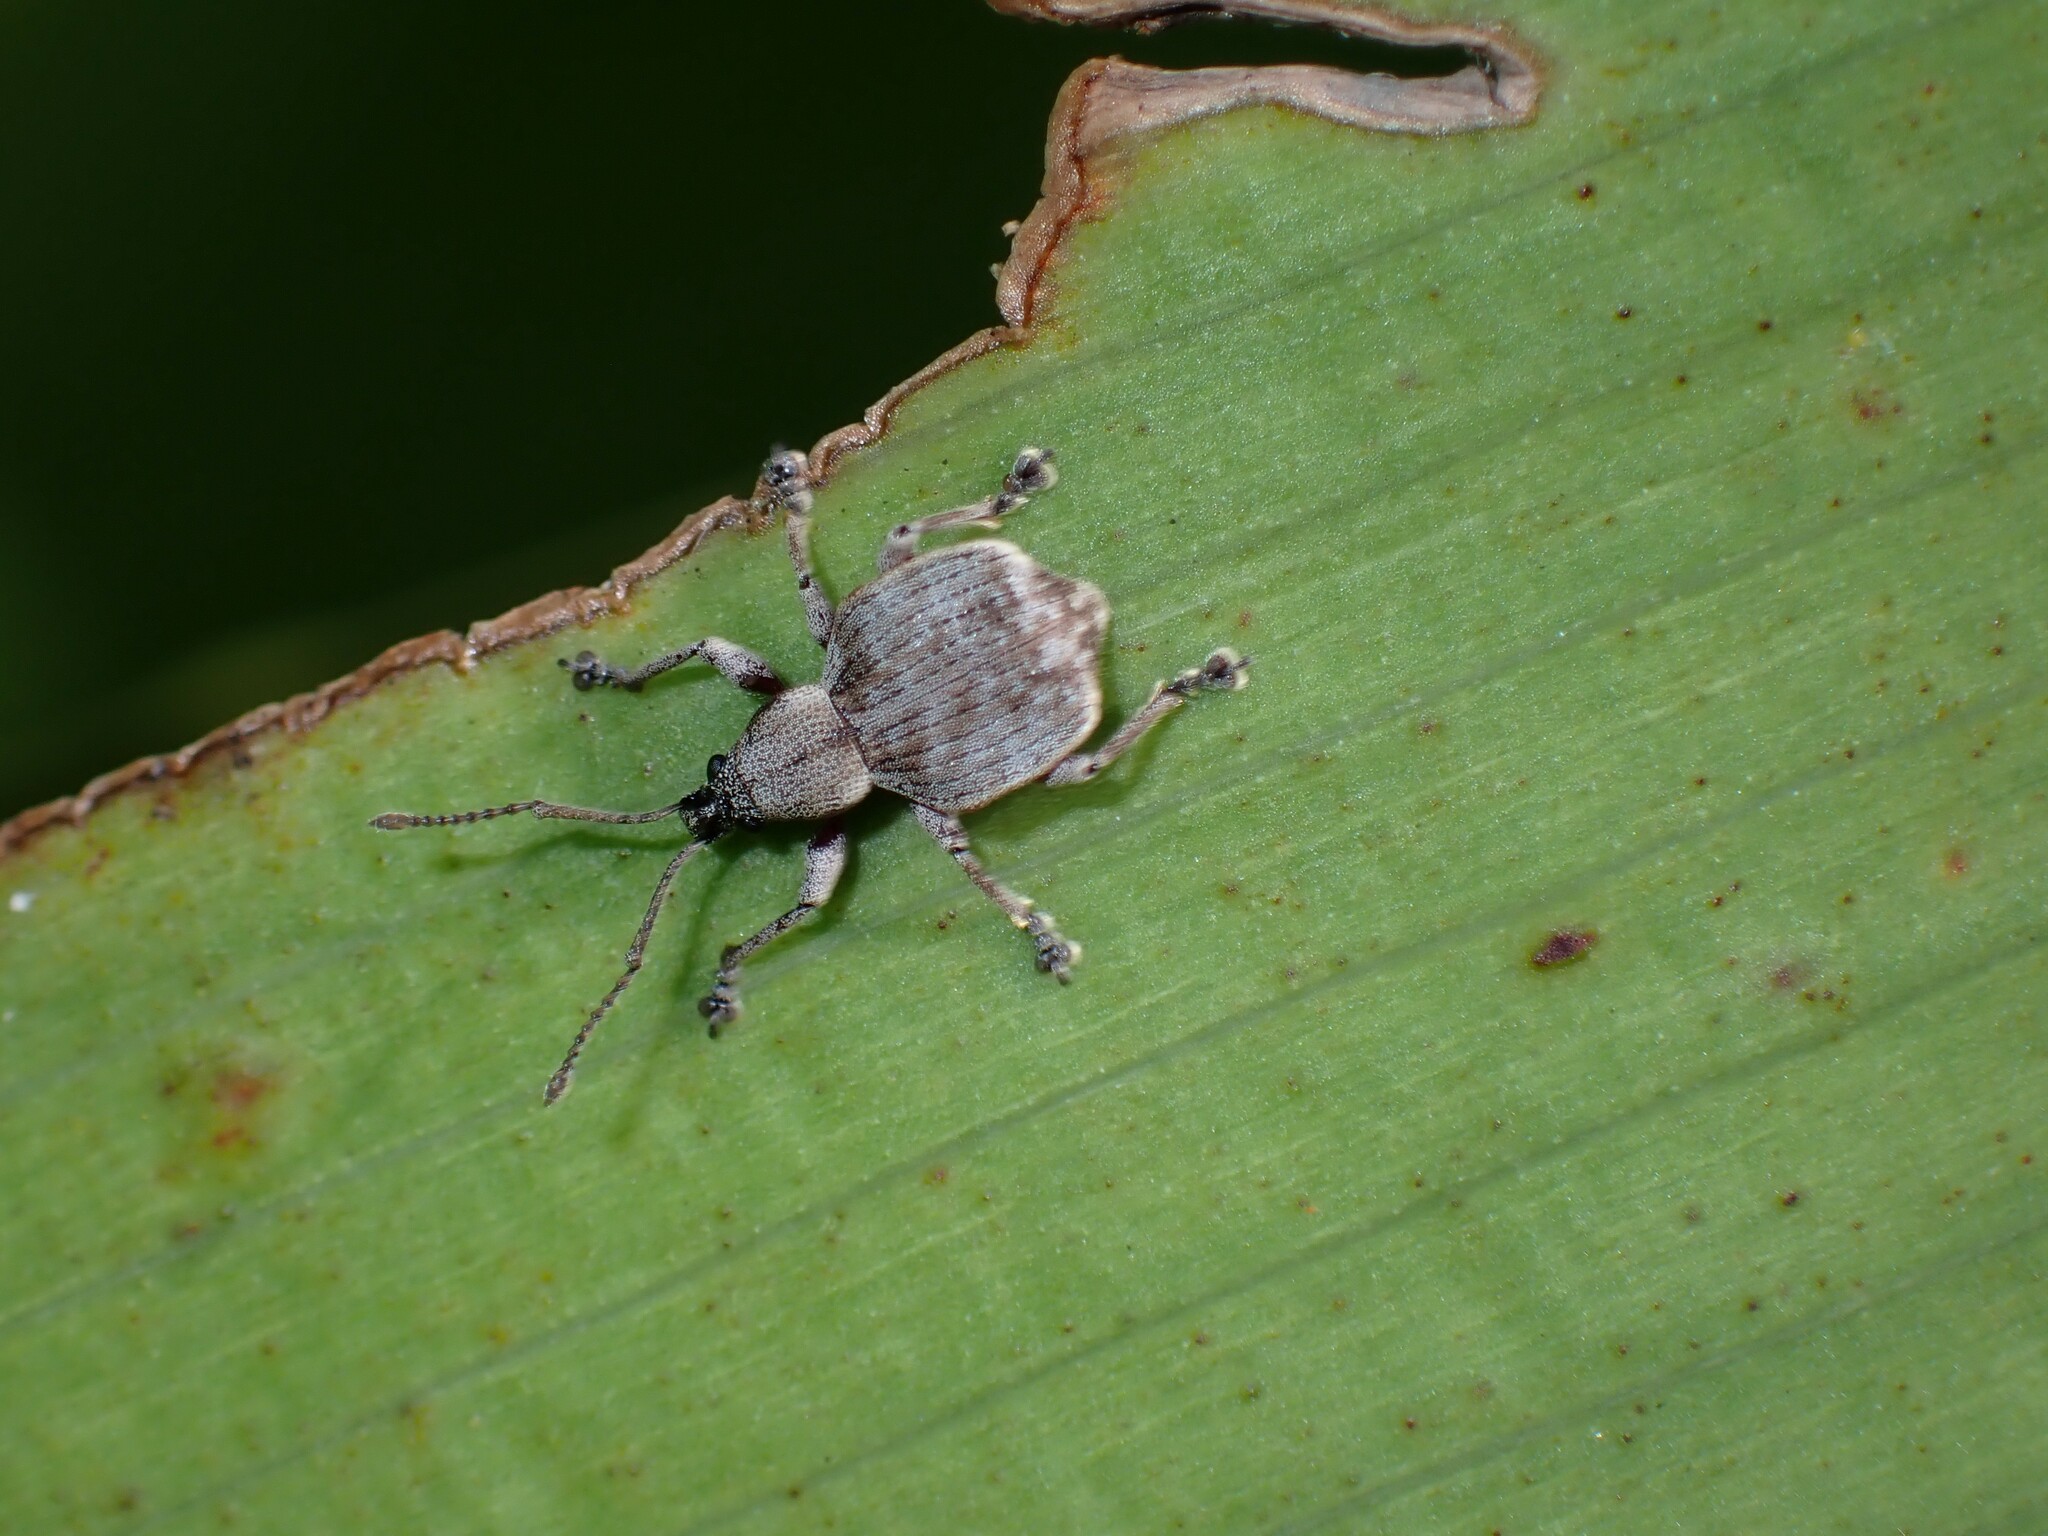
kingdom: Animalia
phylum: Arthropoda
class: Insecta
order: Coleoptera
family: Curculionidae
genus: Platysimus
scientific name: Platysimus septentrionalis
